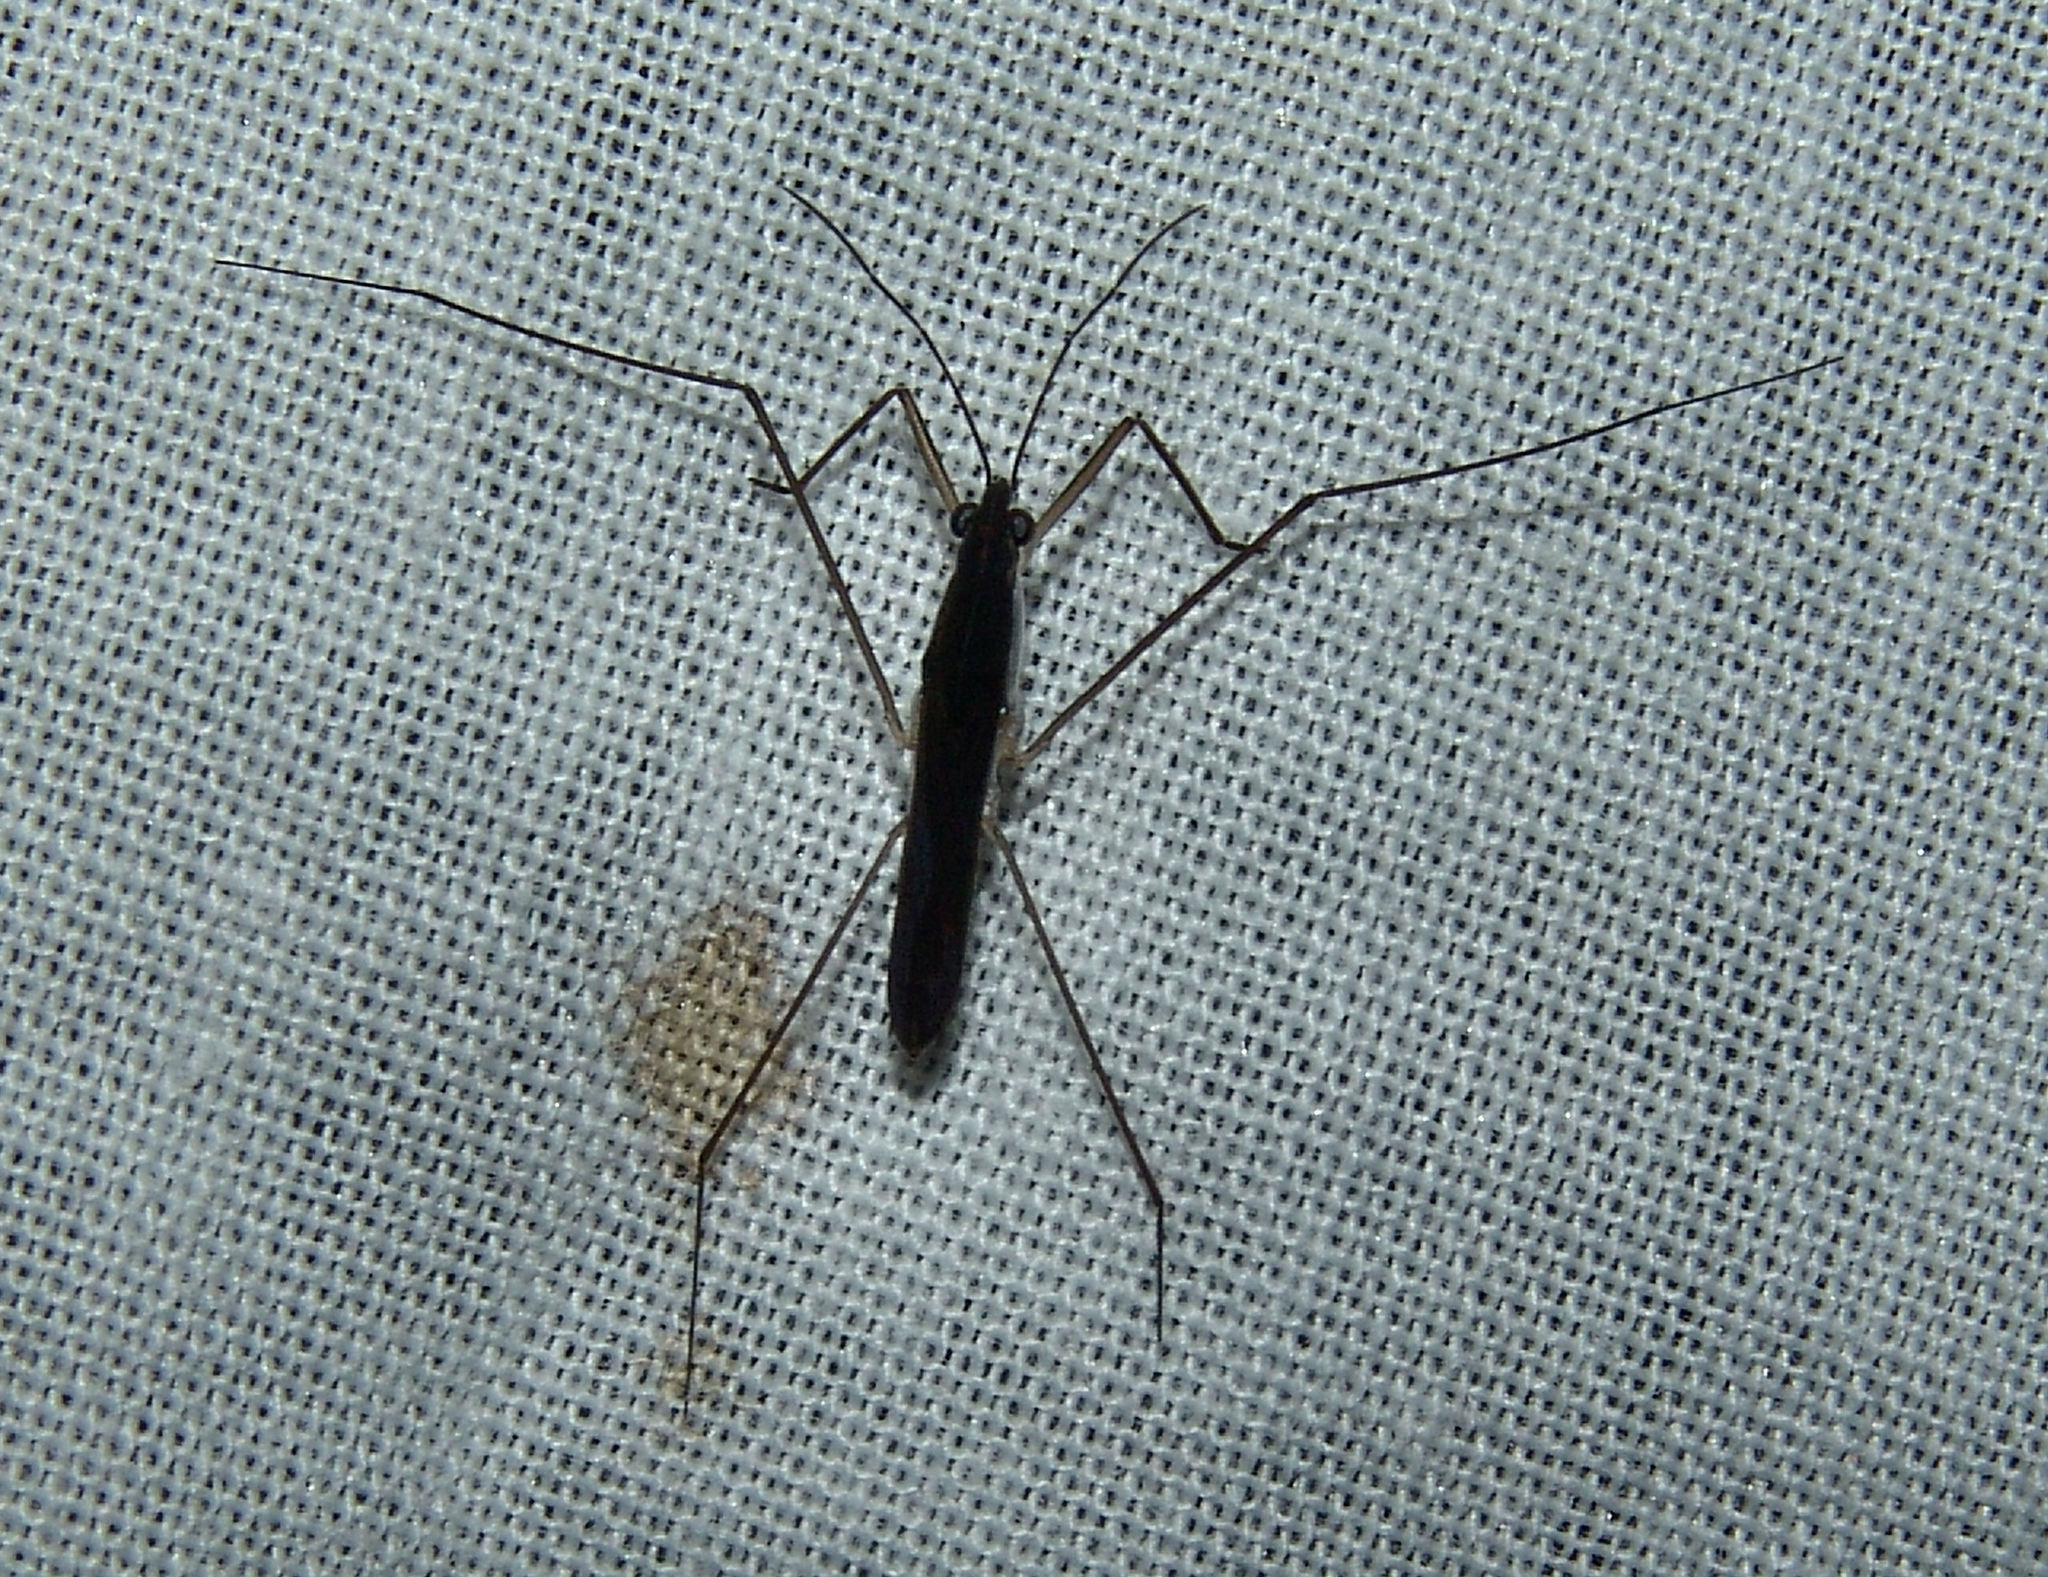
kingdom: Animalia
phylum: Arthropoda
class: Insecta
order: Hemiptera
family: Gerridae
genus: Limnoporus
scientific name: Limnoporus canaliculatus
